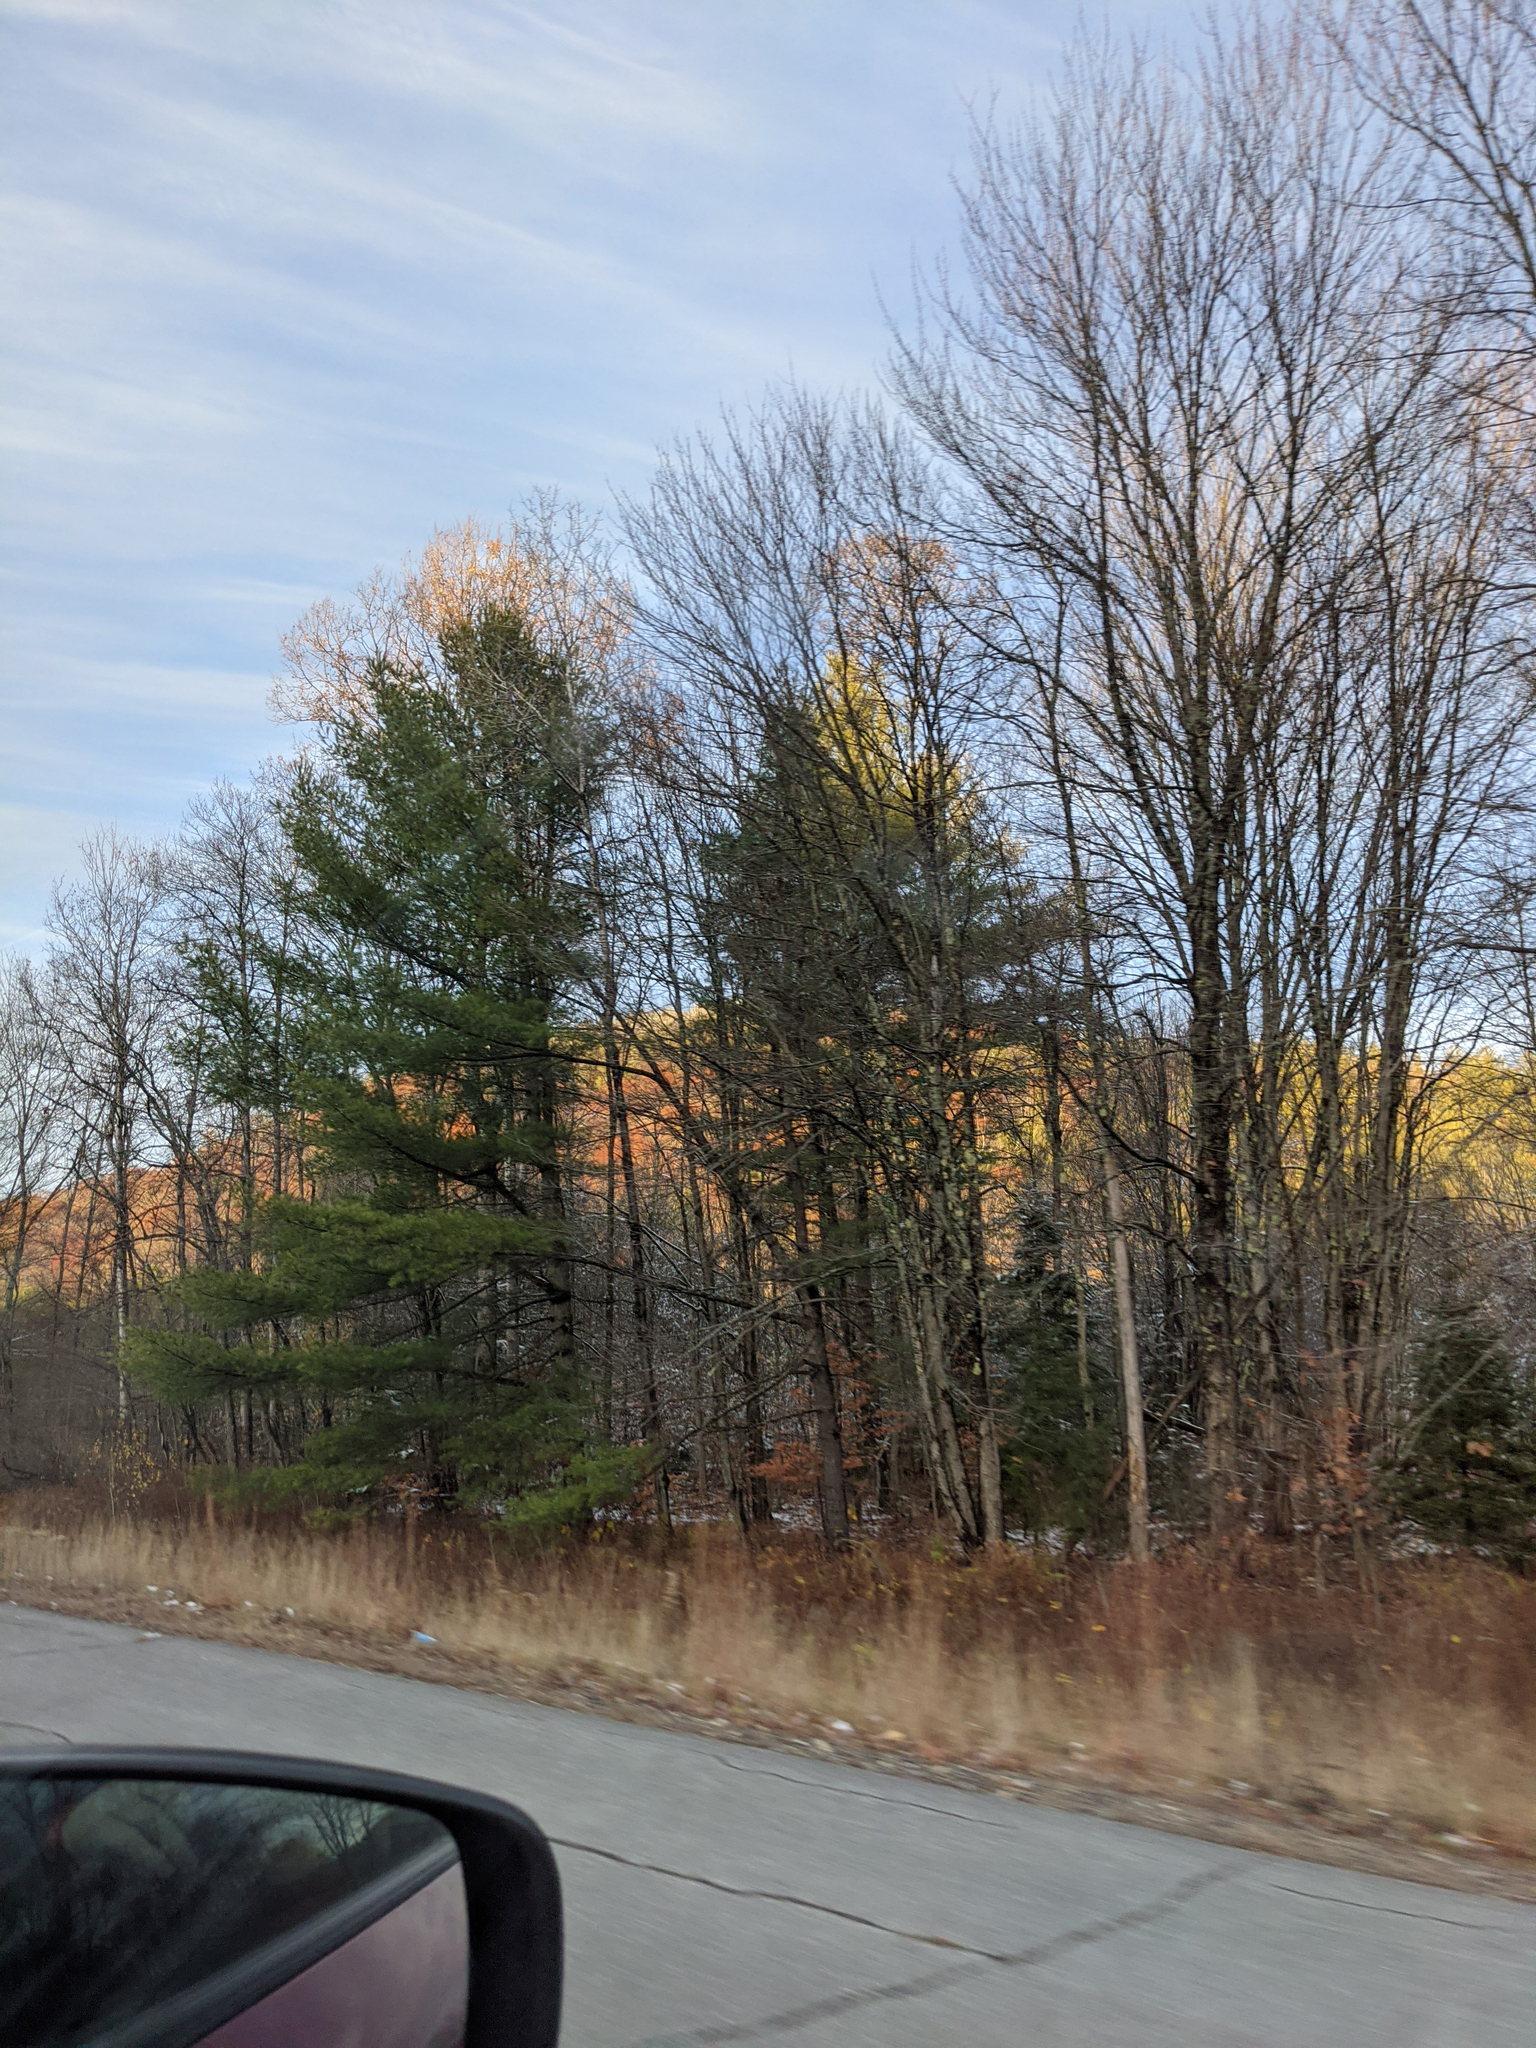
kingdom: Plantae
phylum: Tracheophyta
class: Pinopsida
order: Pinales
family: Pinaceae
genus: Pinus
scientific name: Pinus strobus
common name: Weymouth pine
